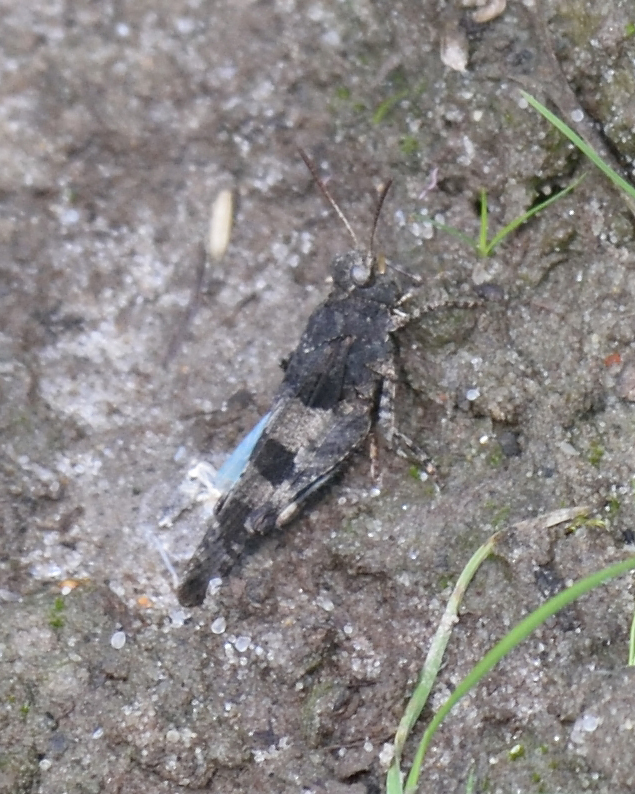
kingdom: Animalia
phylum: Arthropoda
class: Insecta
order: Orthoptera
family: Acrididae
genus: Oedipoda
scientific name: Oedipoda caerulescens
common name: Blue-winged grasshopper
